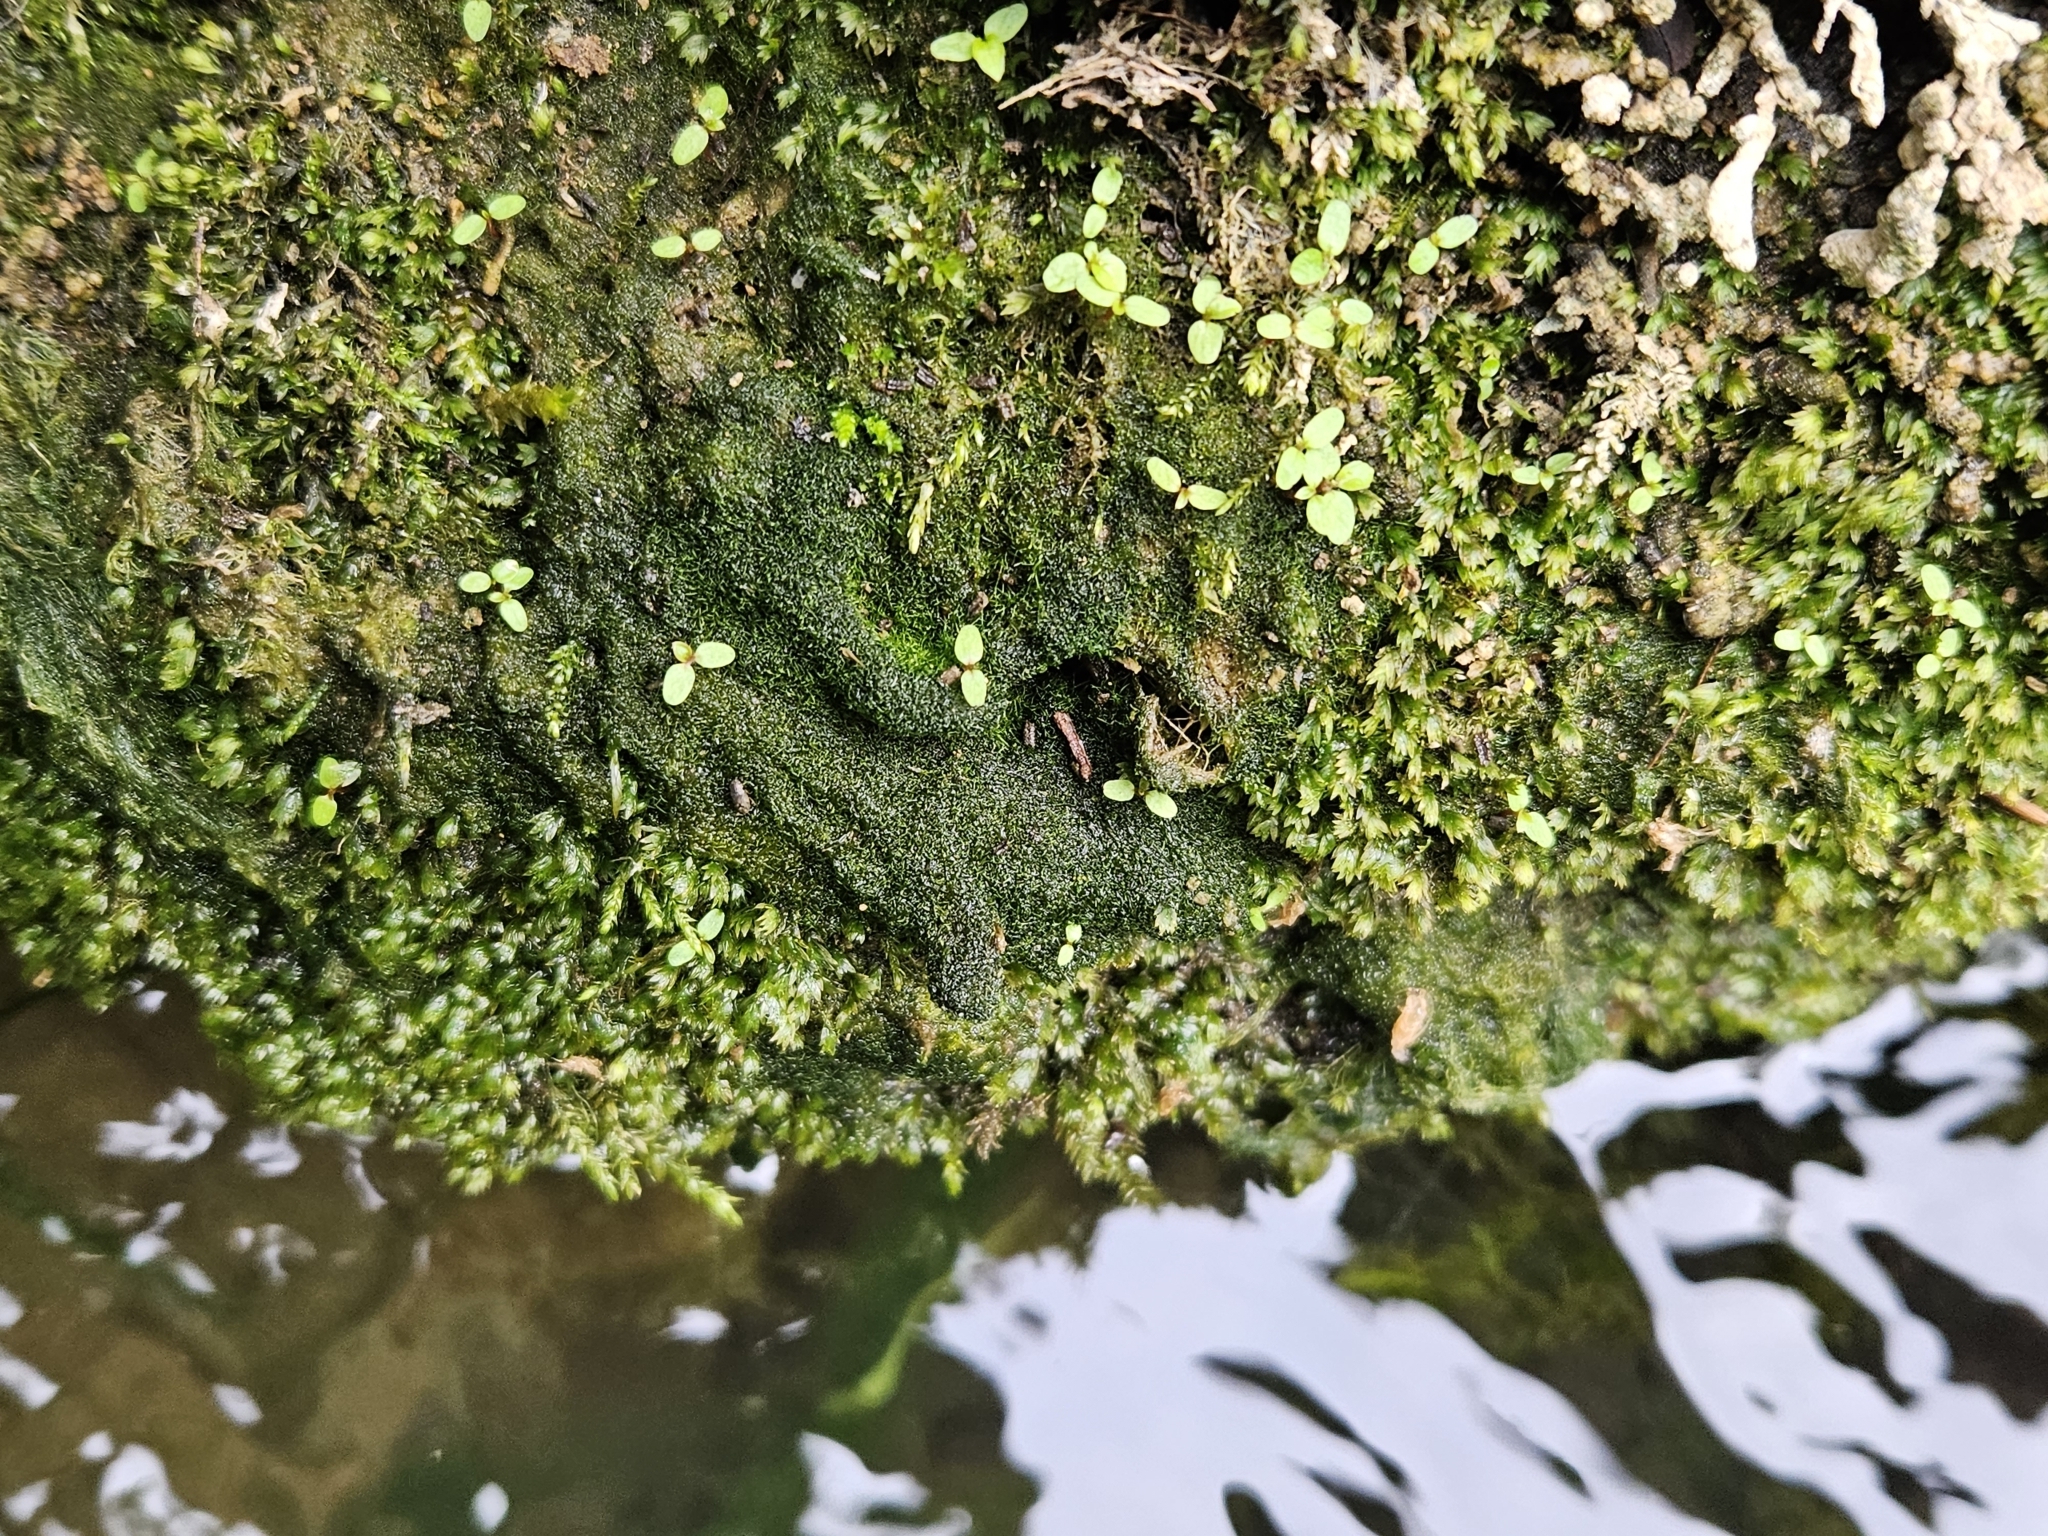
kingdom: Plantae
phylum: Bryophyta
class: Bryopsida
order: Dicranales
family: Fissidentaceae
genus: Fissidens
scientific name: Fissidens crassipes
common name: Fatfoot pocket-moss
